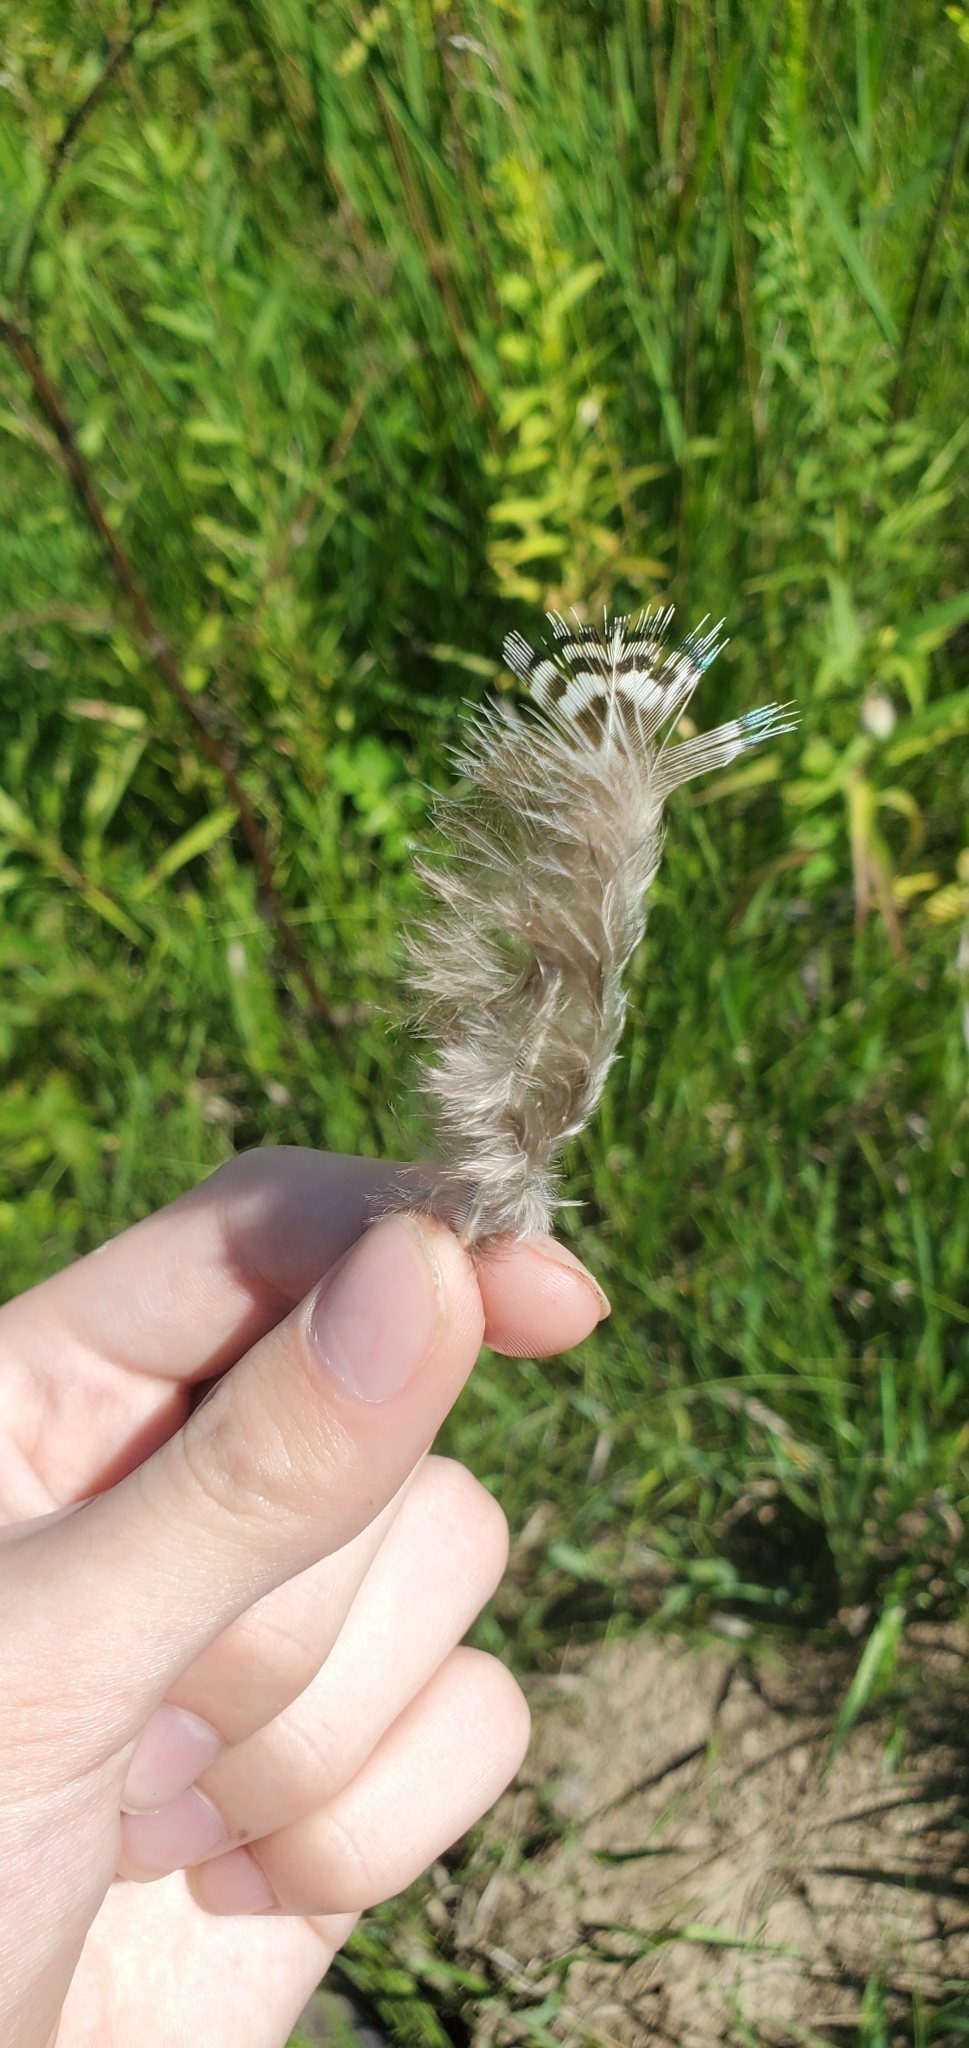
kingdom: Animalia
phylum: Chordata
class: Aves
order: Galliformes
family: Phasianidae
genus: Phasianus
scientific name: Phasianus colchicus
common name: Common pheasant
